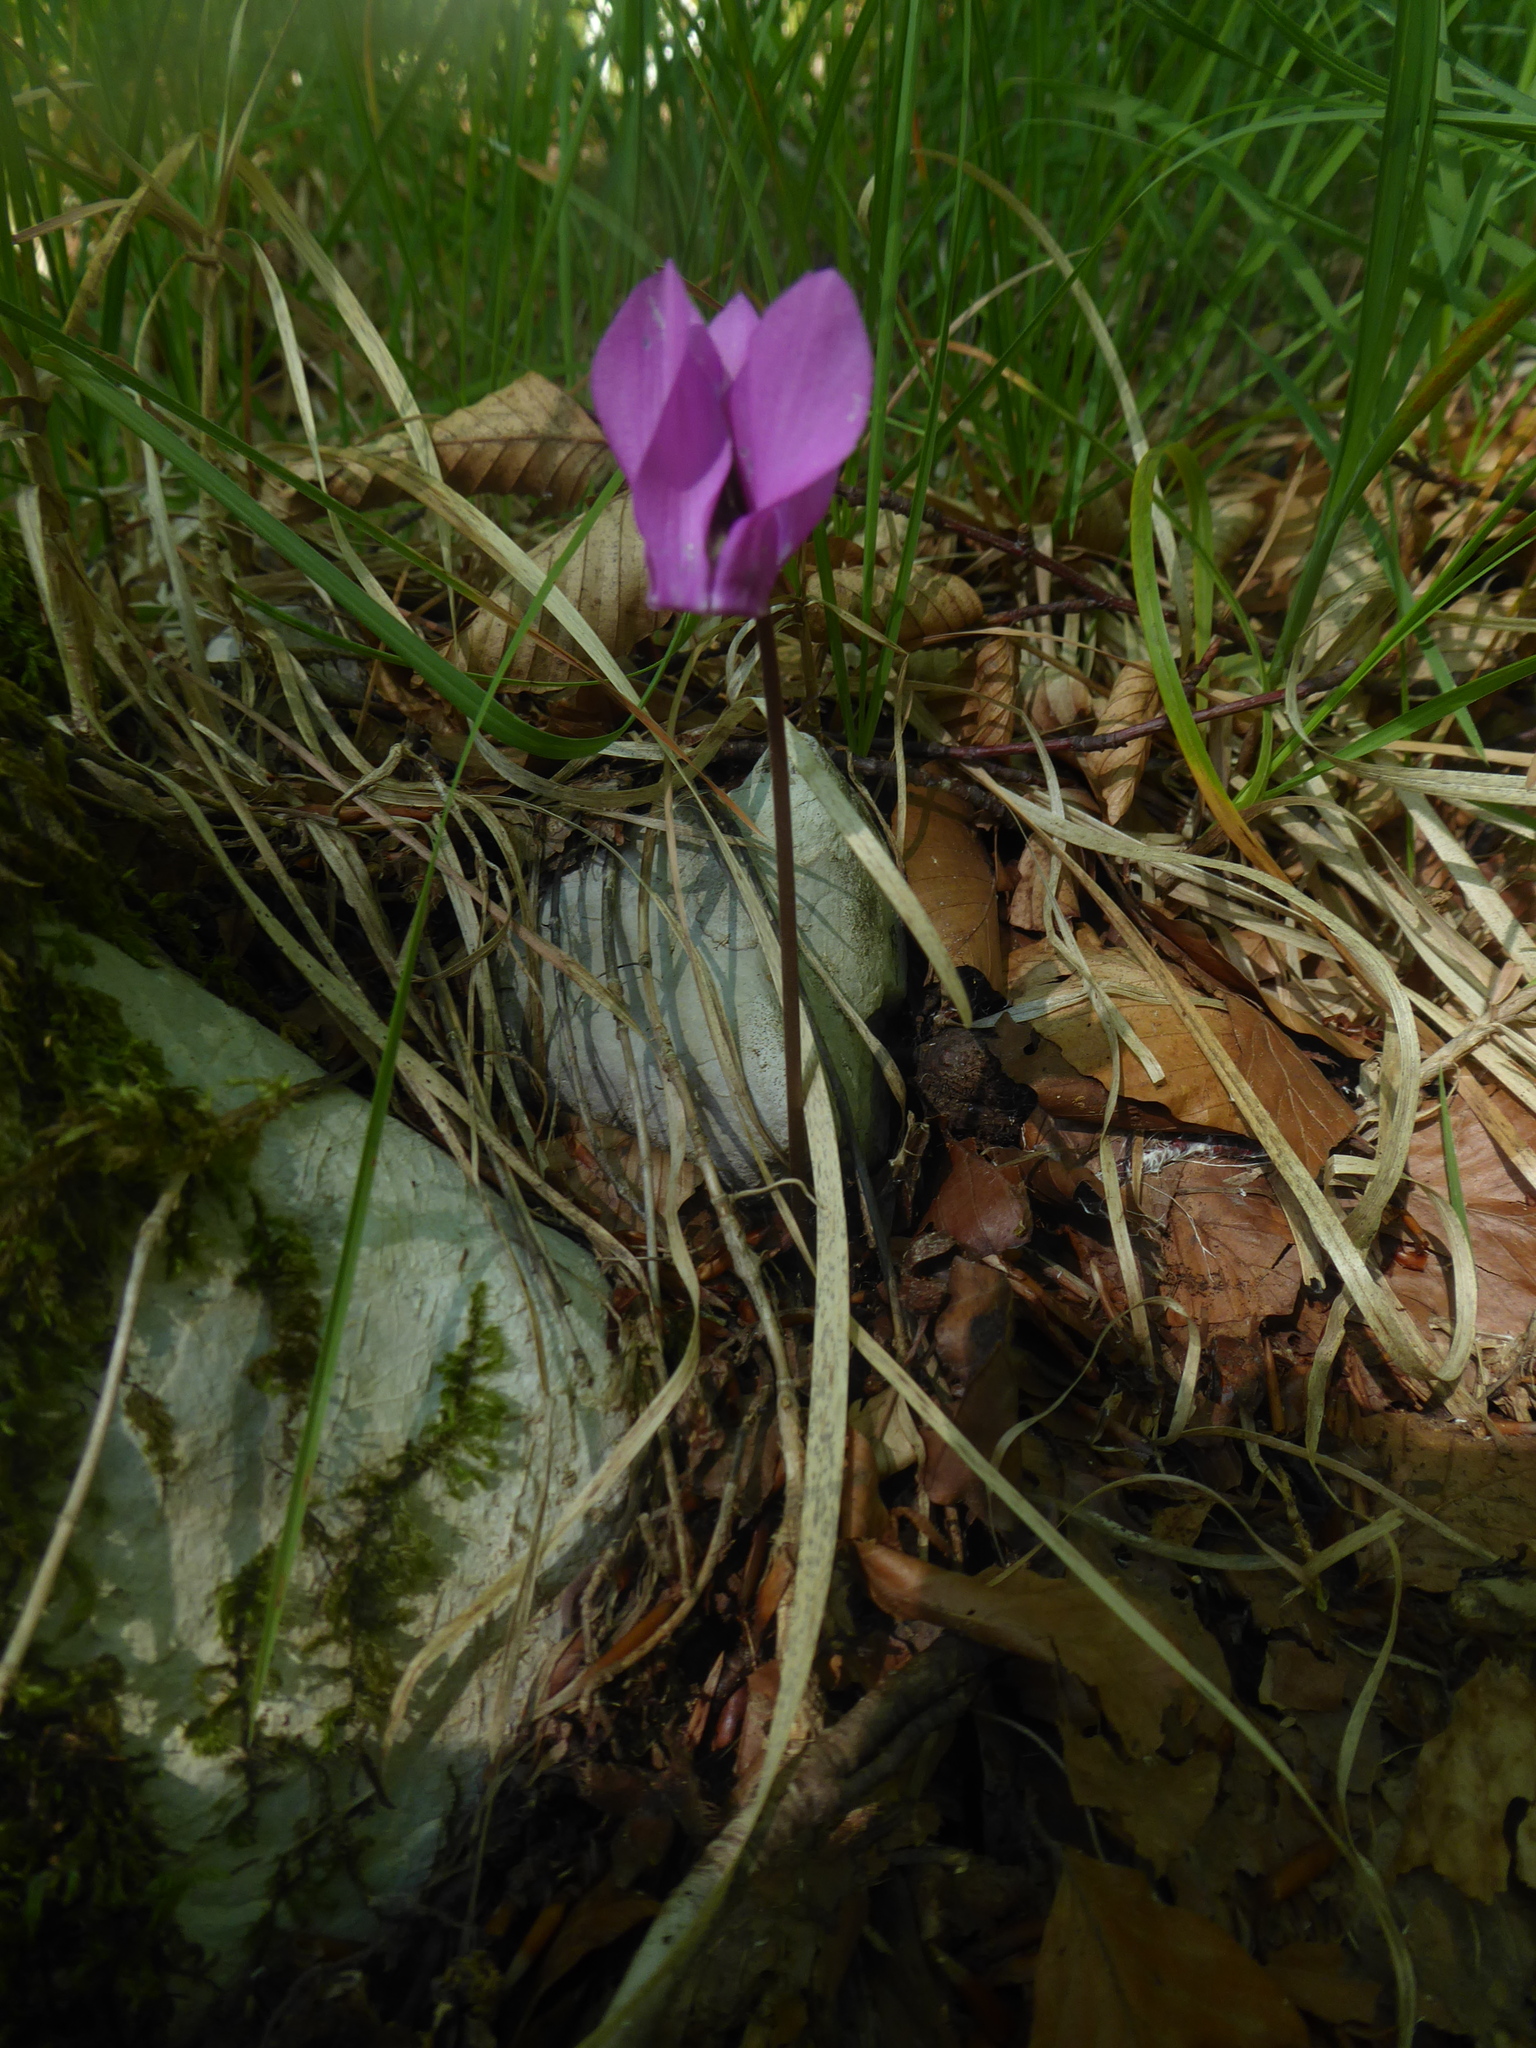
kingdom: Plantae
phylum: Tracheophyta
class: Magnoliopsida
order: Ericales
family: Primulaceae
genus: Cyclamen
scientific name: Cyclamen purpurascens
